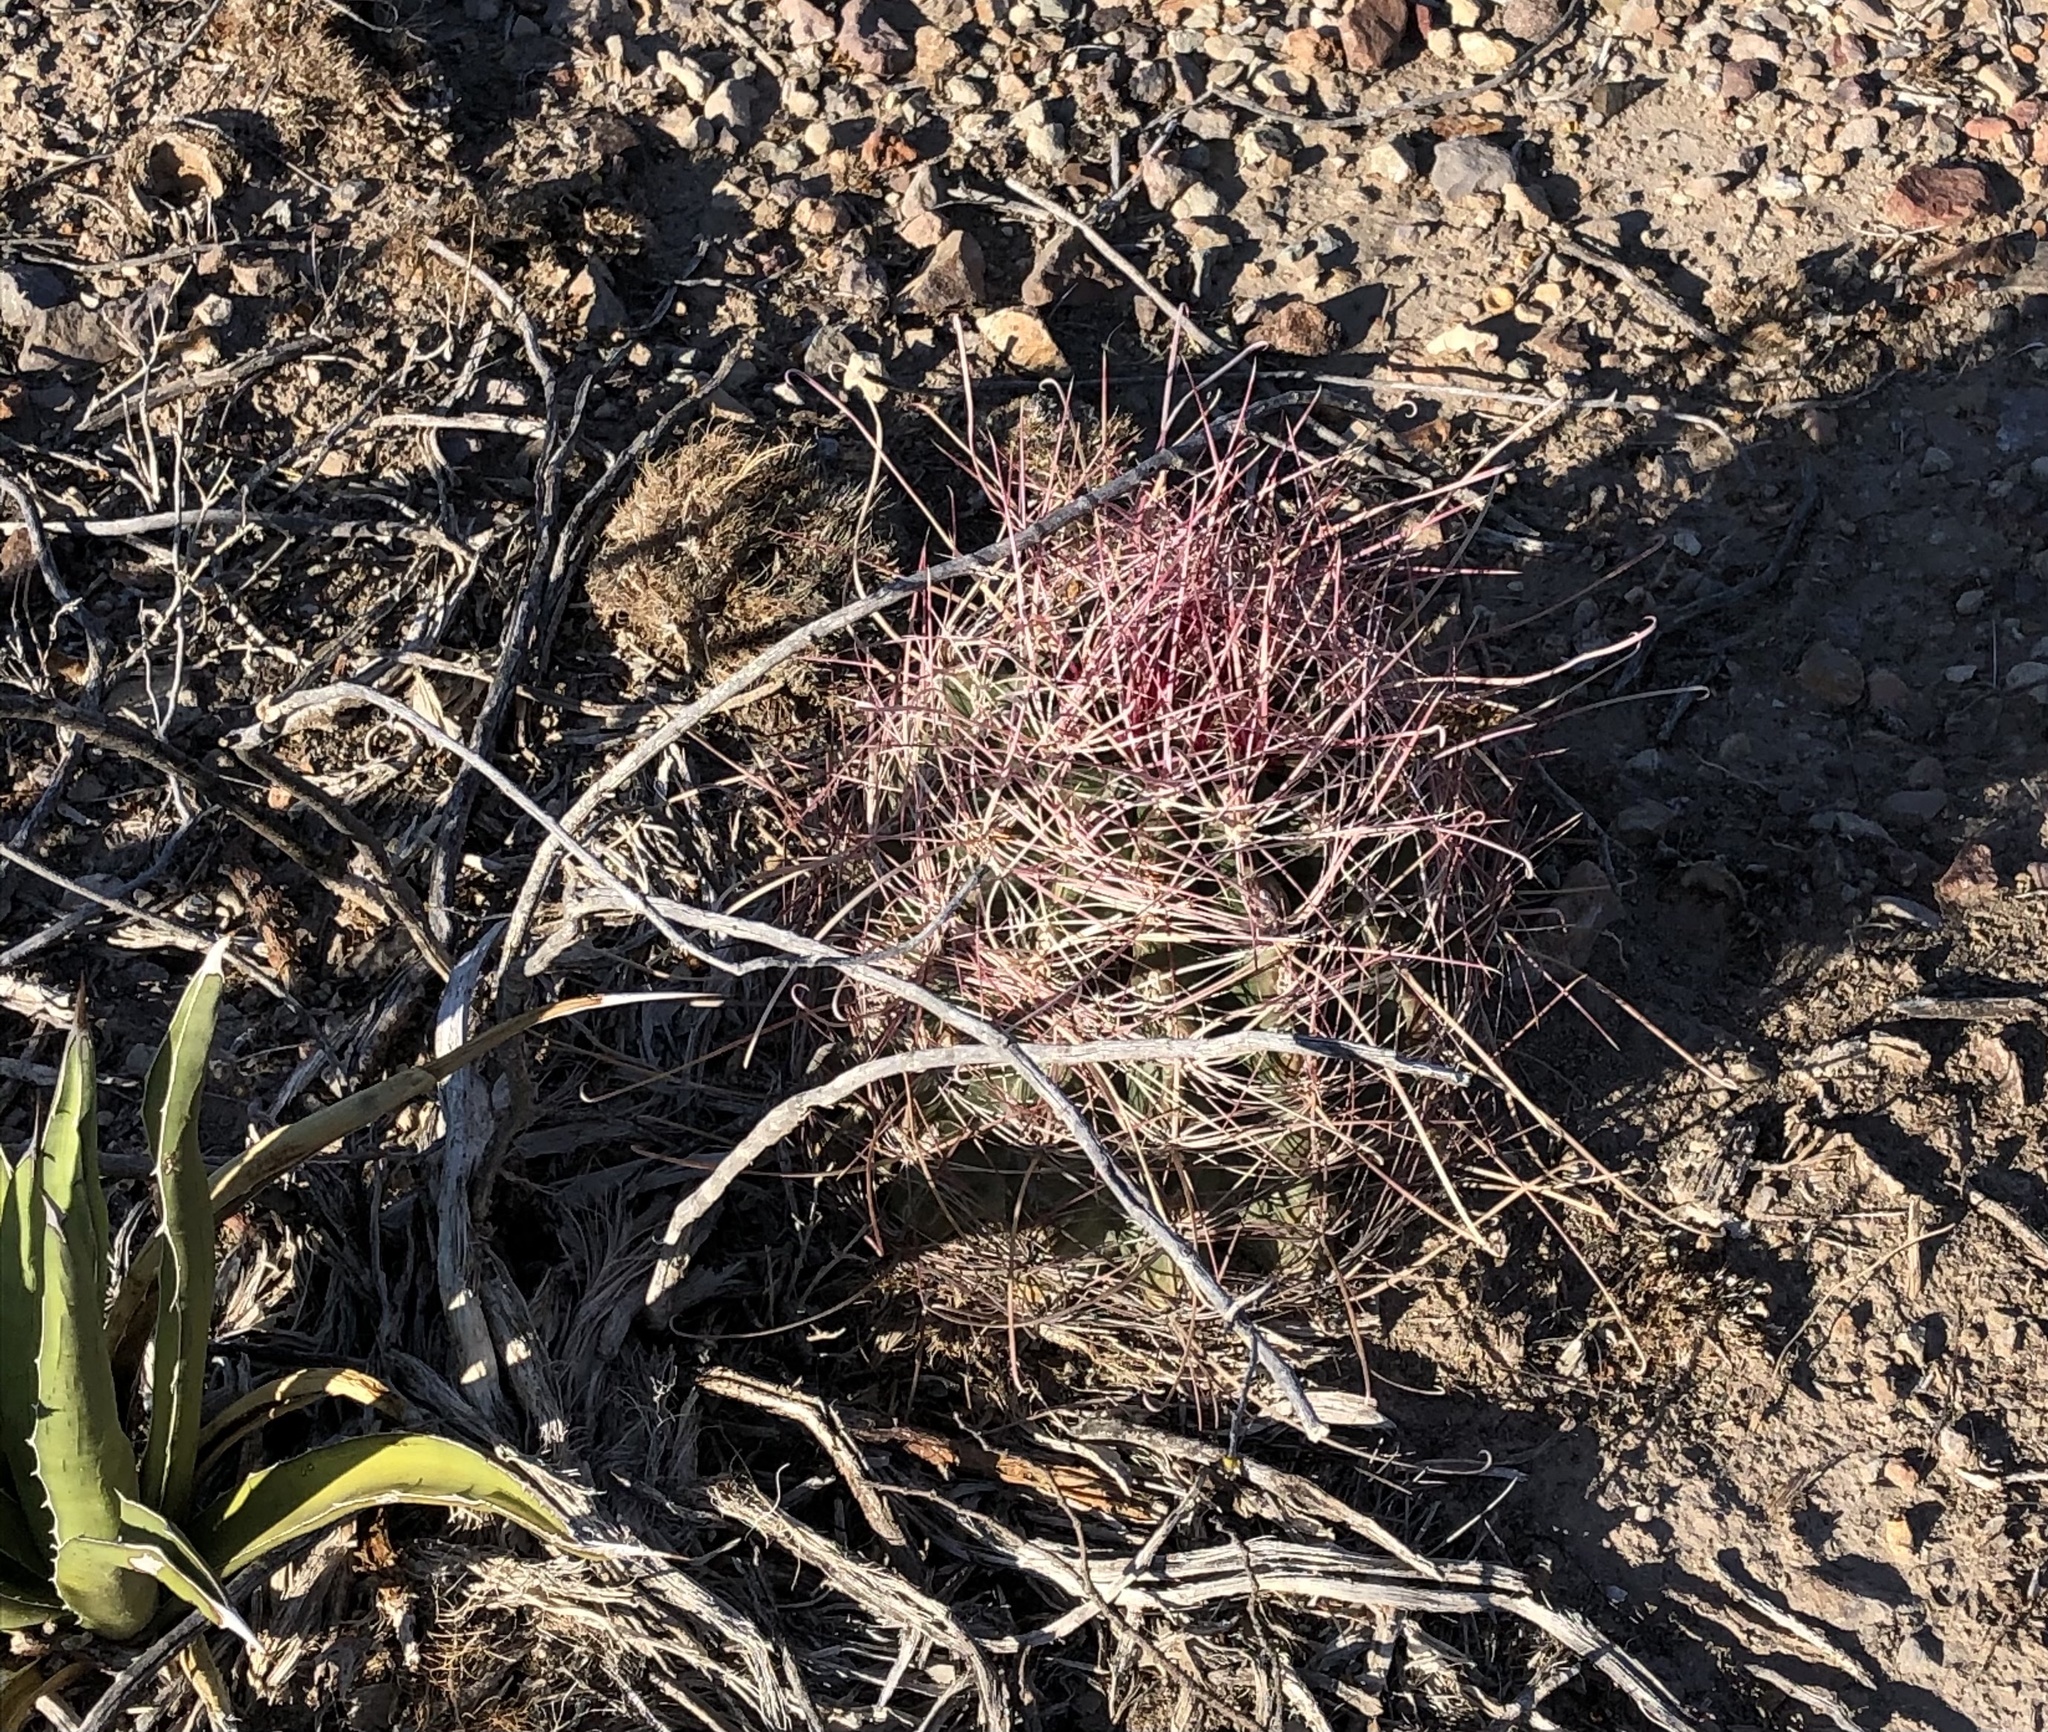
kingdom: Plantae
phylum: Tracheophyta
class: Magnoliopsida
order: Caryophyllales
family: Cactaceae
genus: Bisnaga
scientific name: Bisnaga hamatacantha
